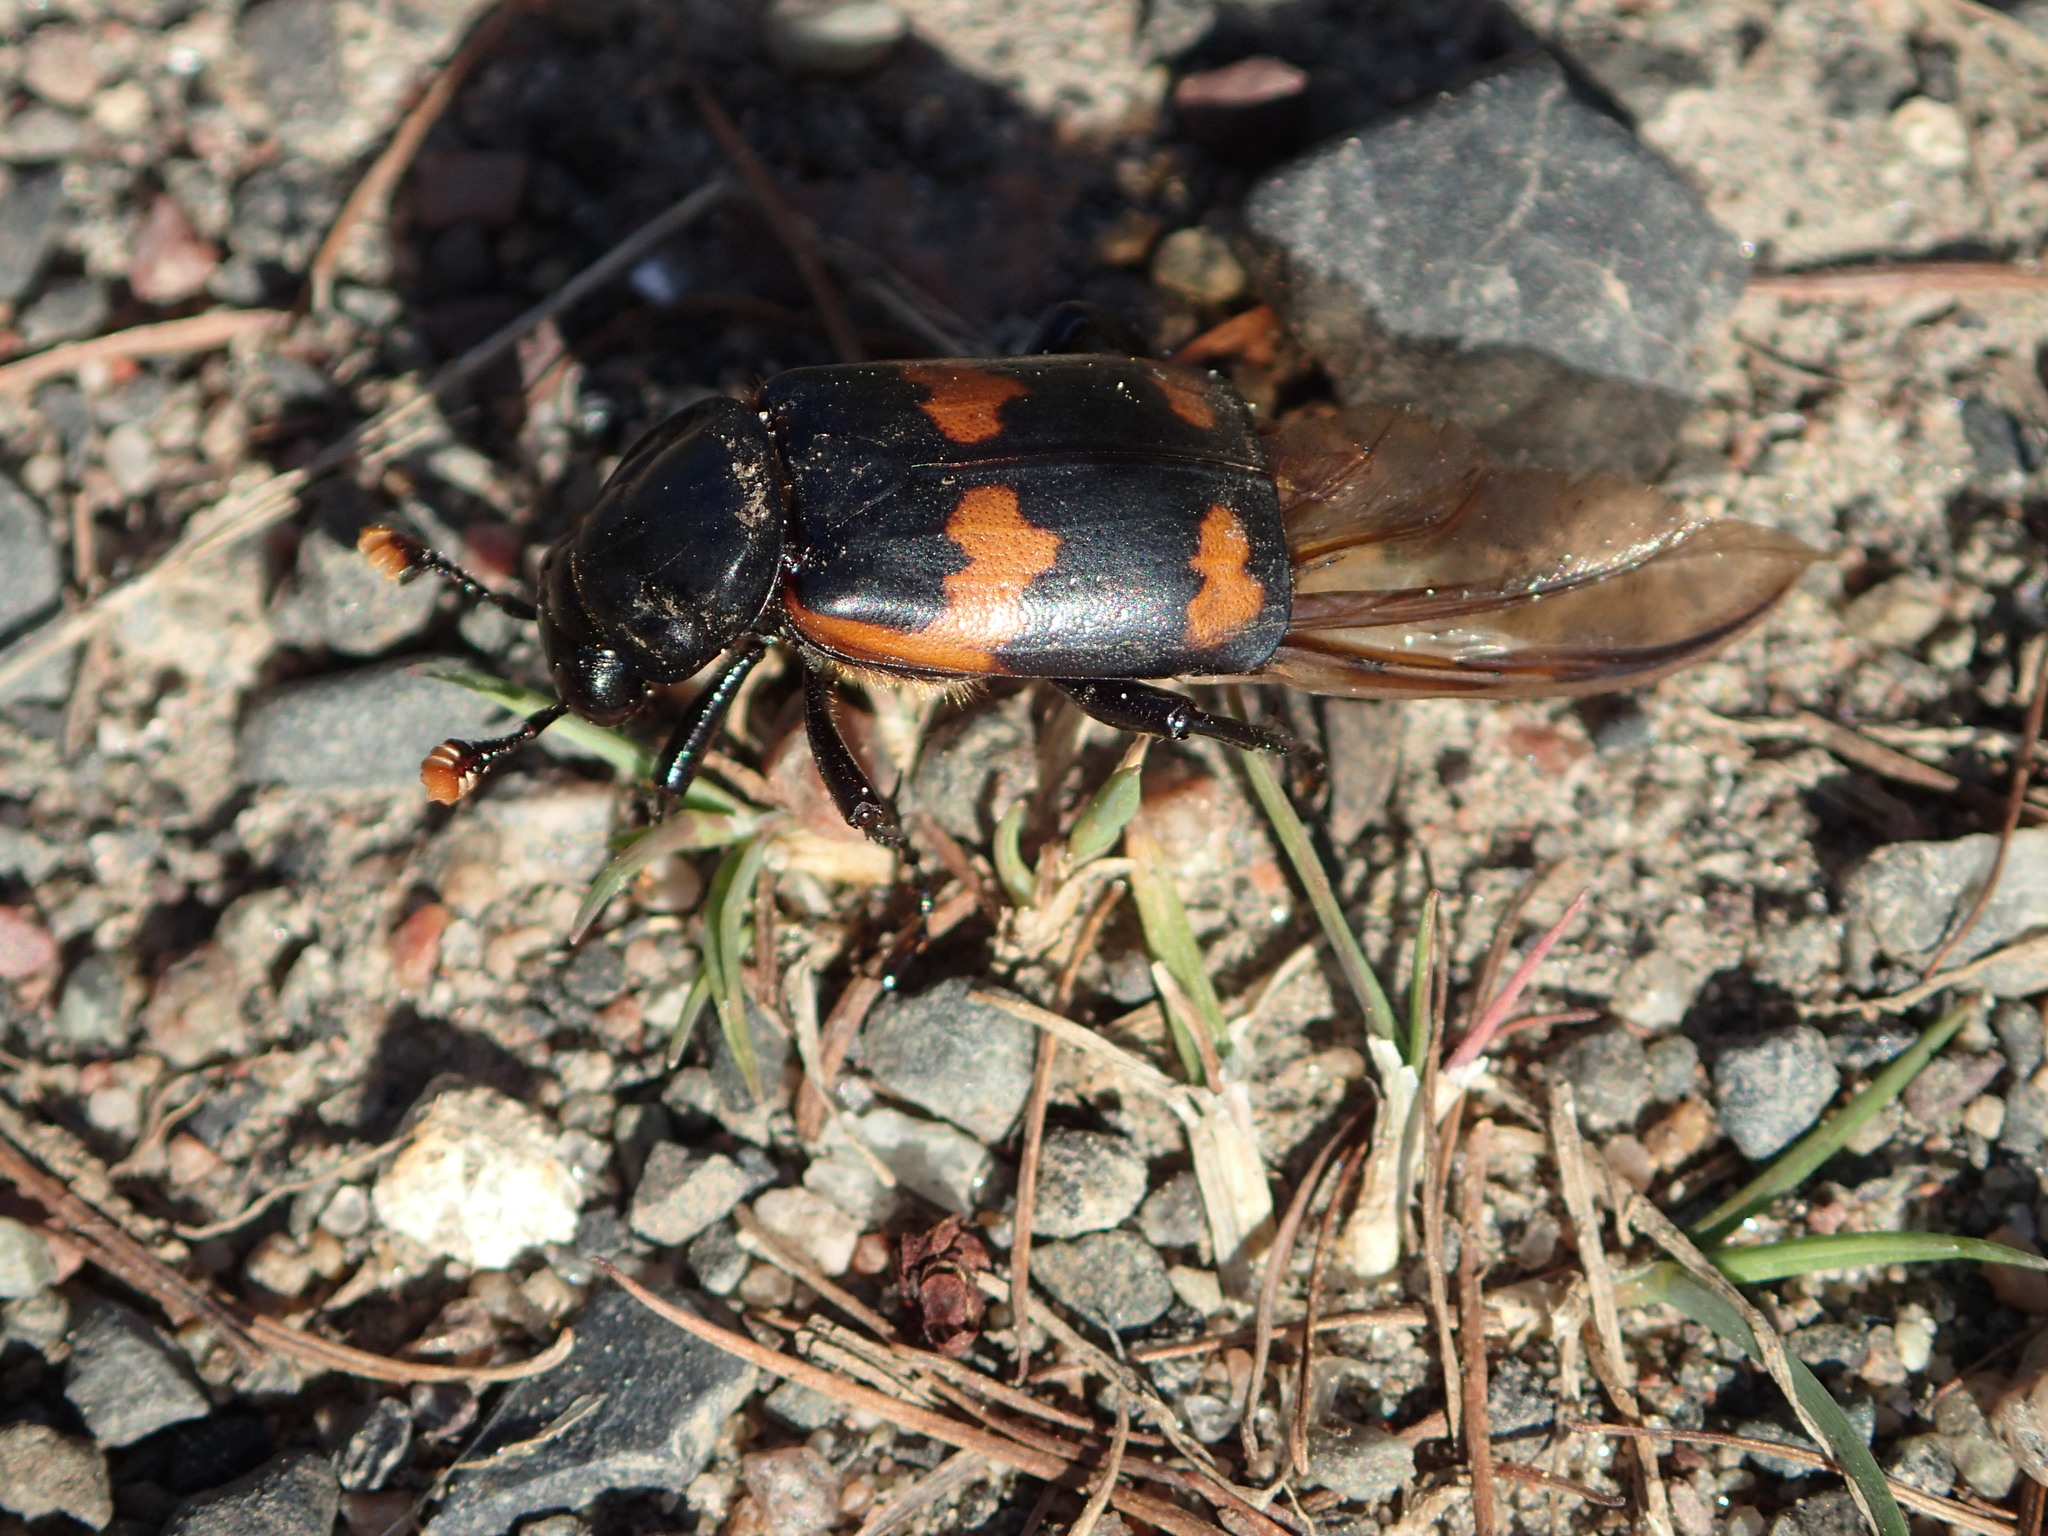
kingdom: Animalia
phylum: Arthropoda
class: Insecta
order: Coleoptera
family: Staphylinidae
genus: Nicrophorus
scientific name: Nicrophorus sayi
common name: Say's burying beetle
